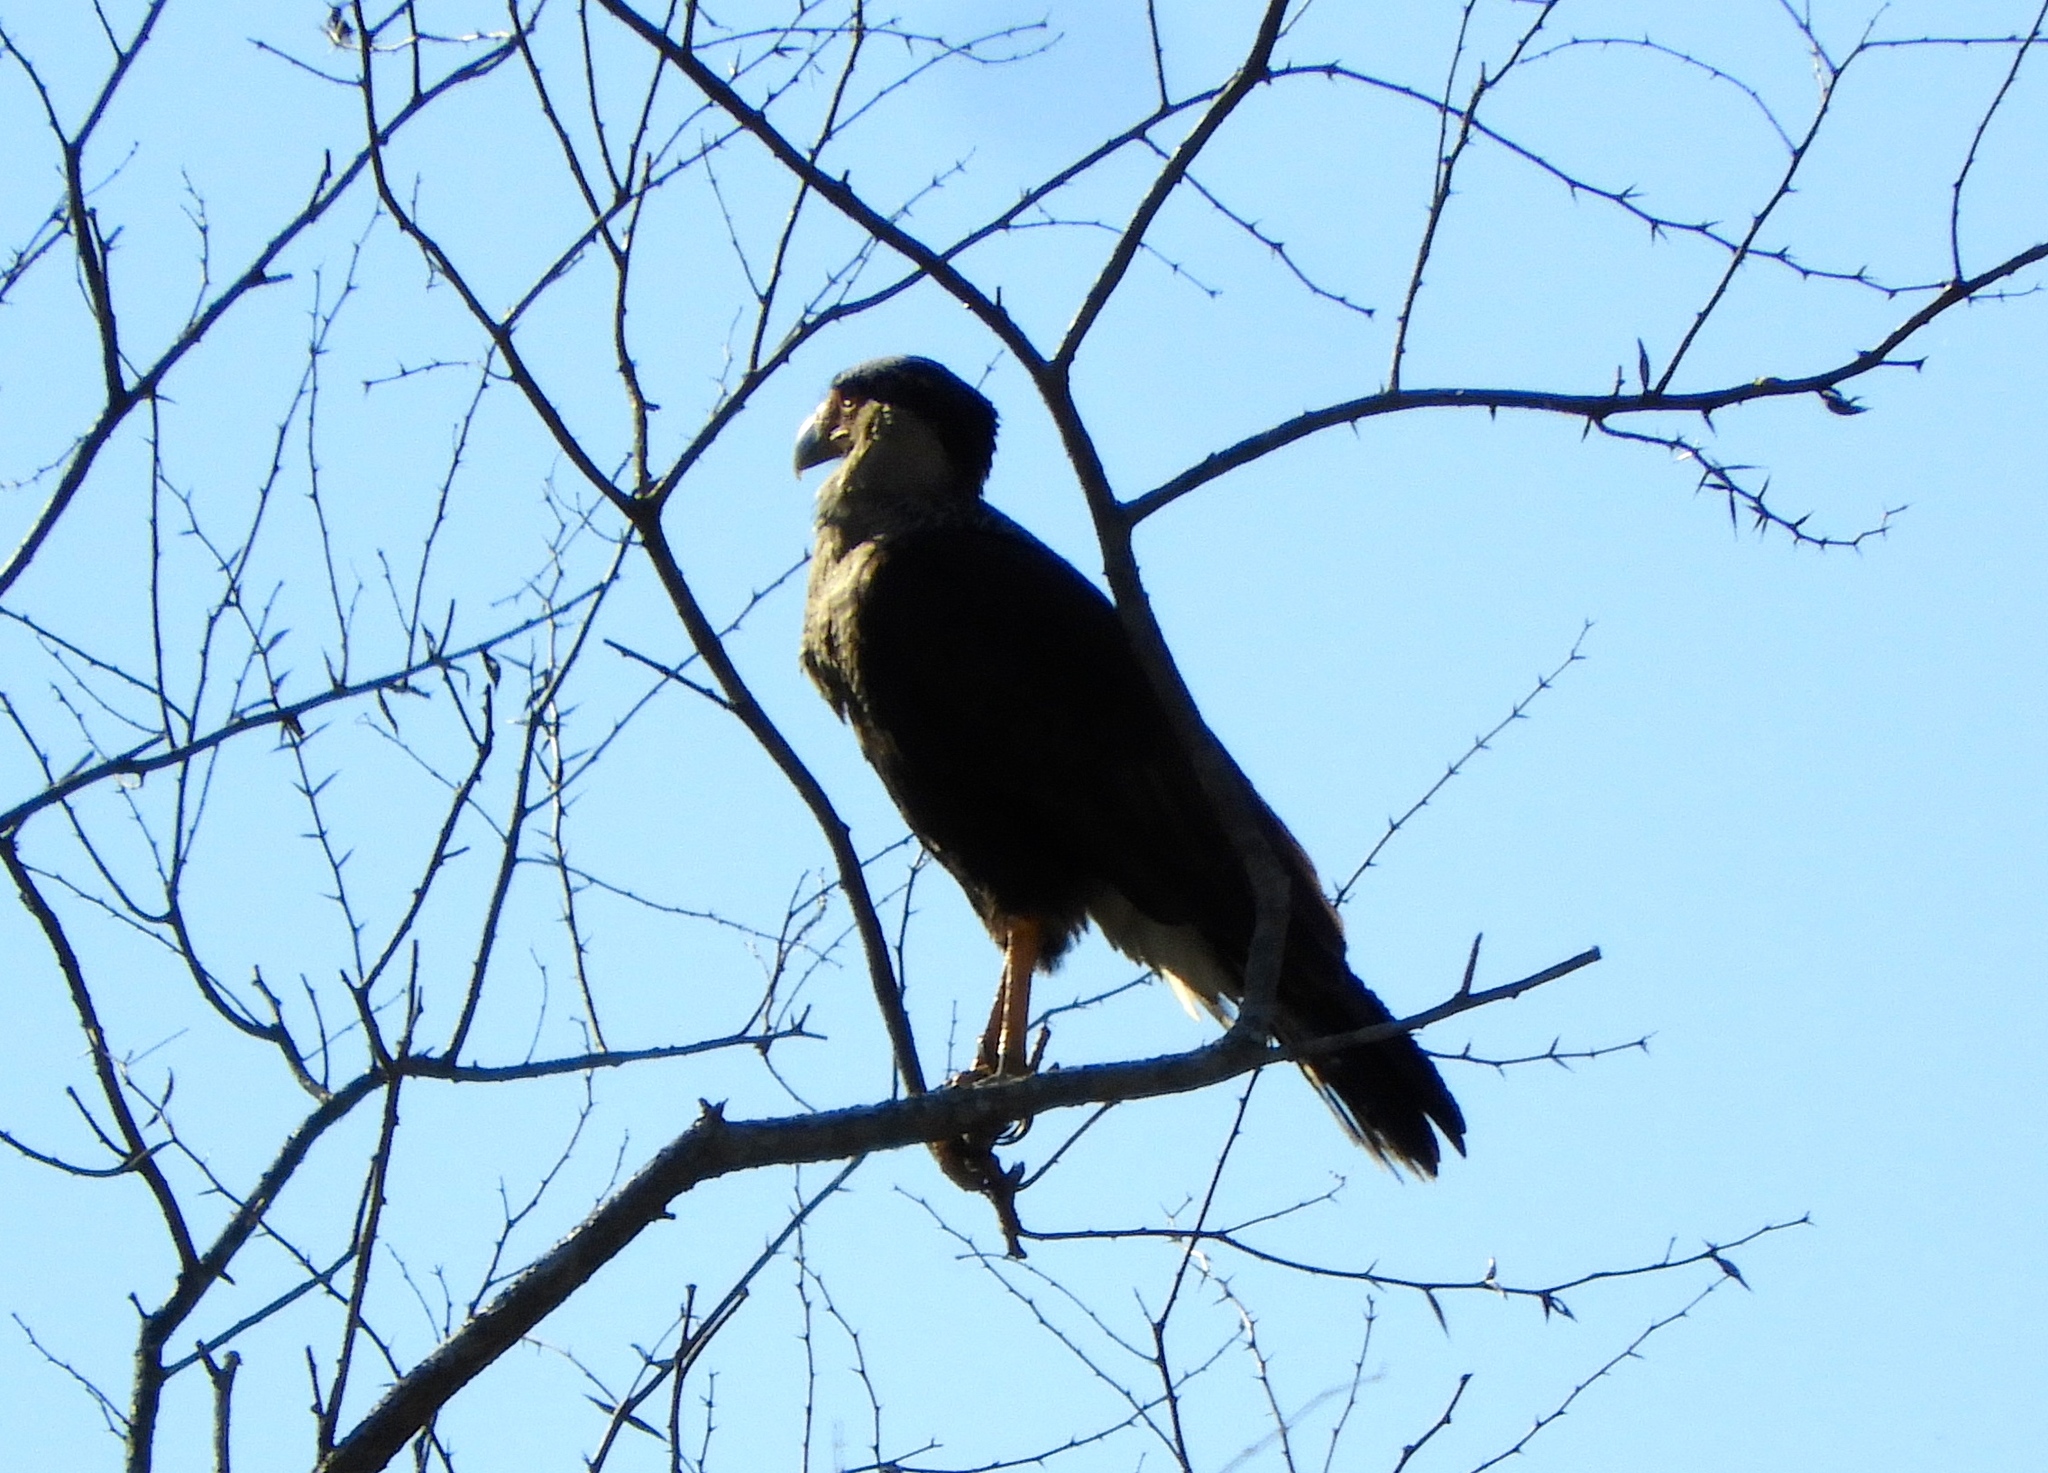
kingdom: Animalia
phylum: Chordata
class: Aves
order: Falconiformes
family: Falconidae
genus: Caracara
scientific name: Caracara plancus
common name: Southern caracara
